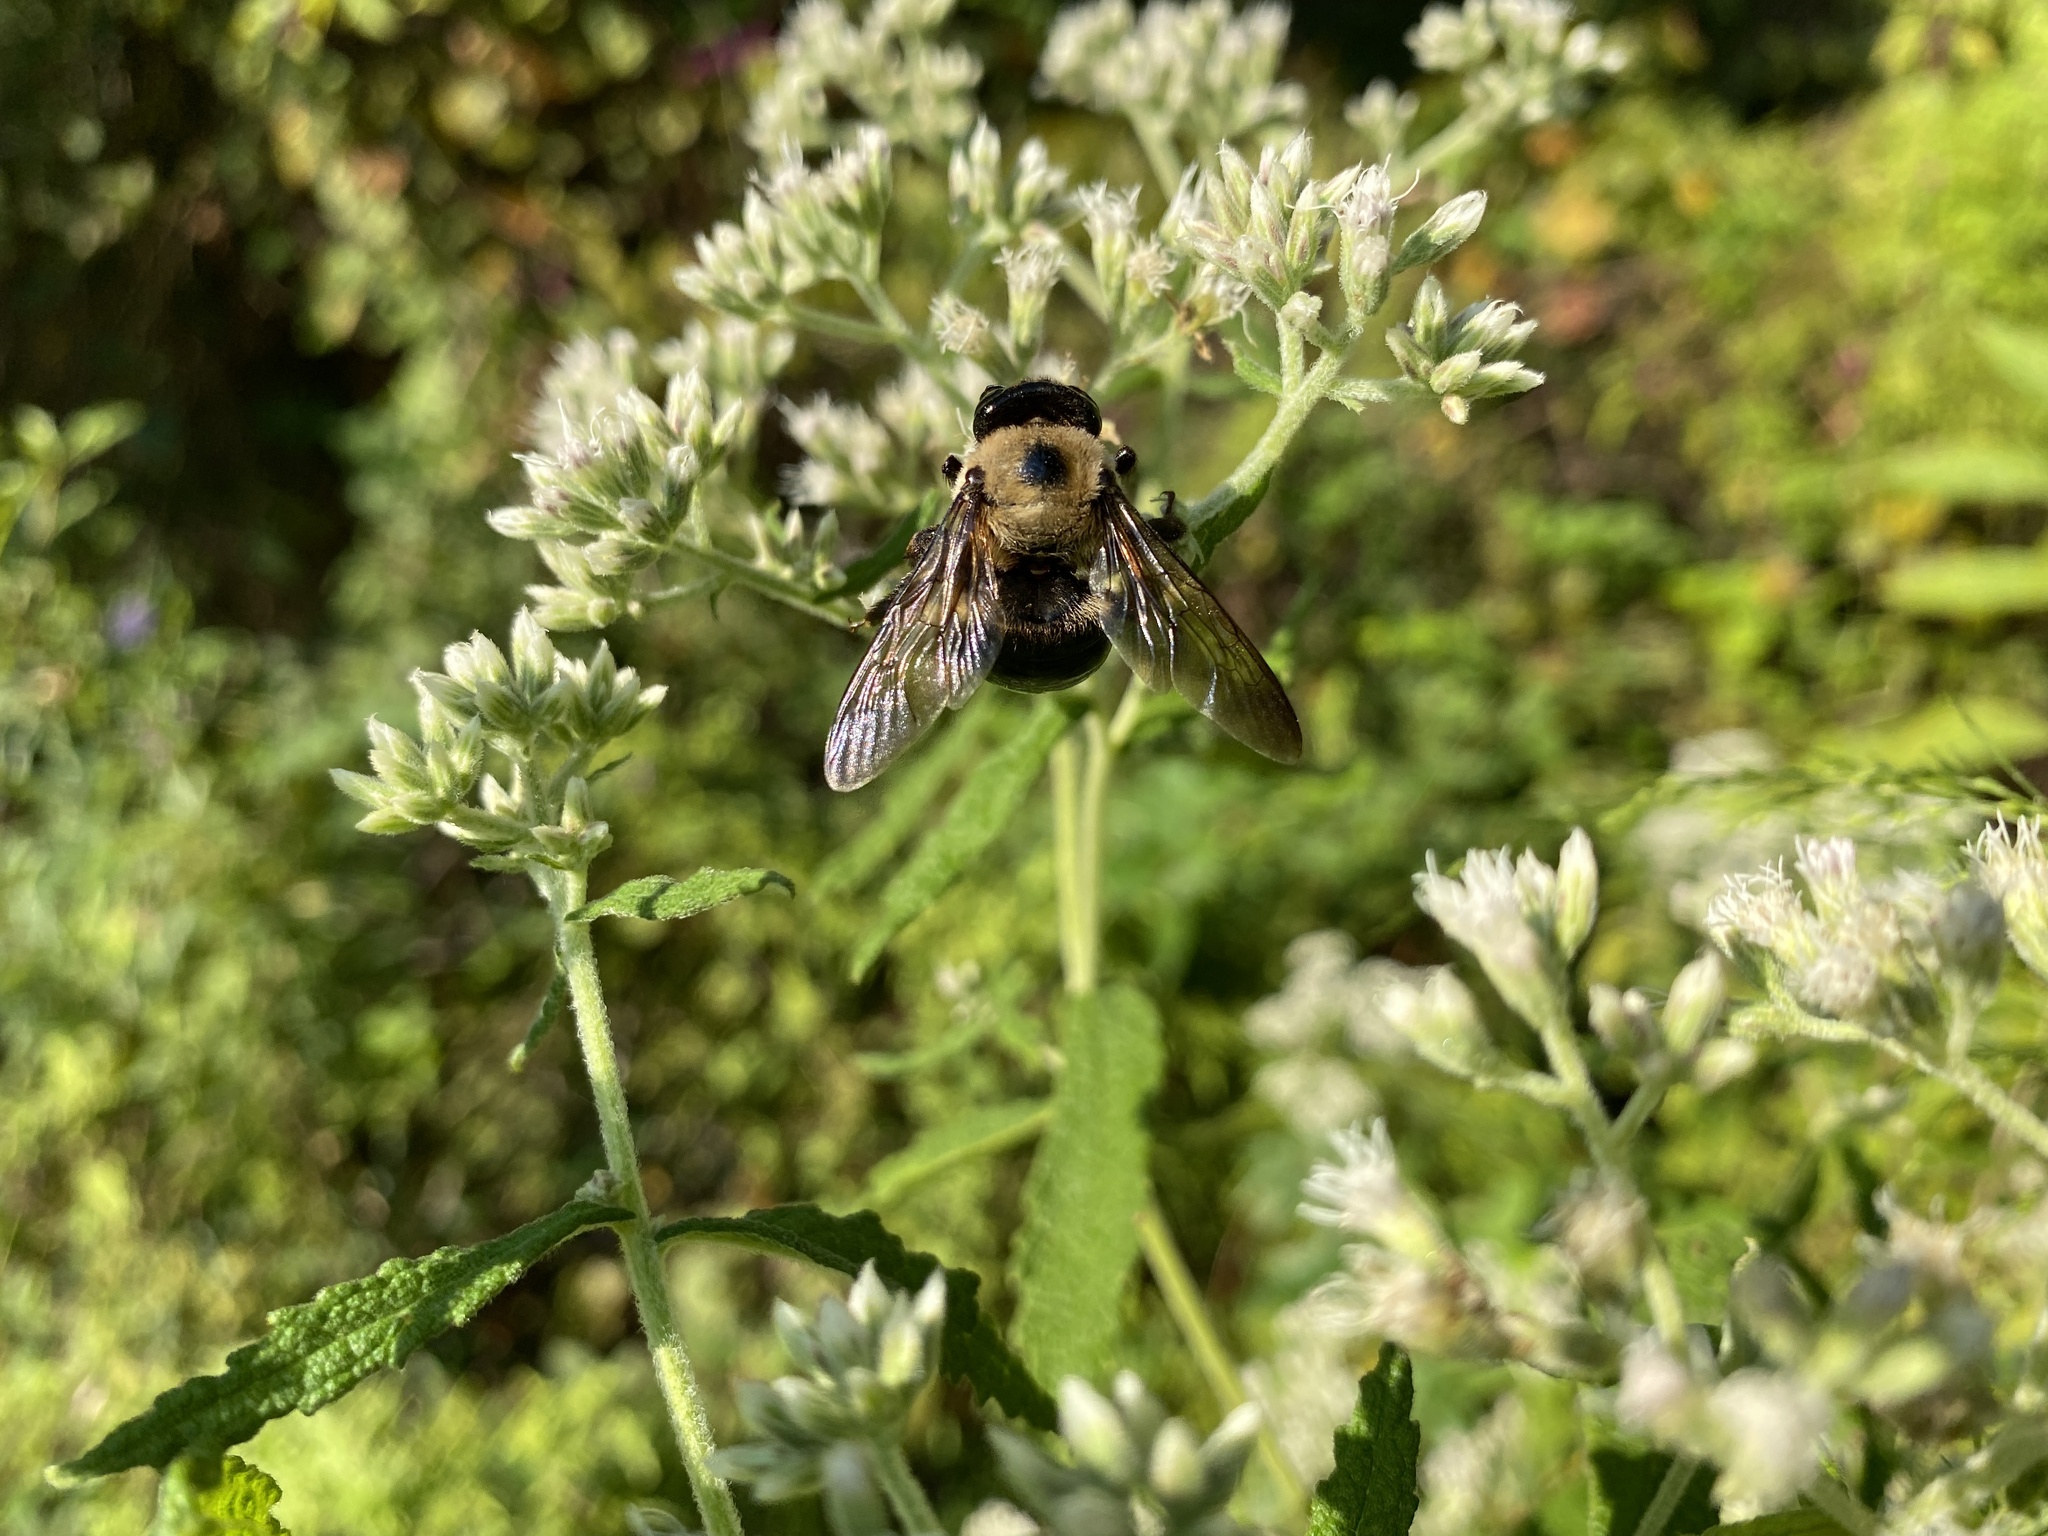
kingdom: Animalia
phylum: Arthropoda
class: Insecta
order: Hymenoptera
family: Apidae
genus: Xylocopa
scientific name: Xylocopa virginica
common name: Carpenter bee
